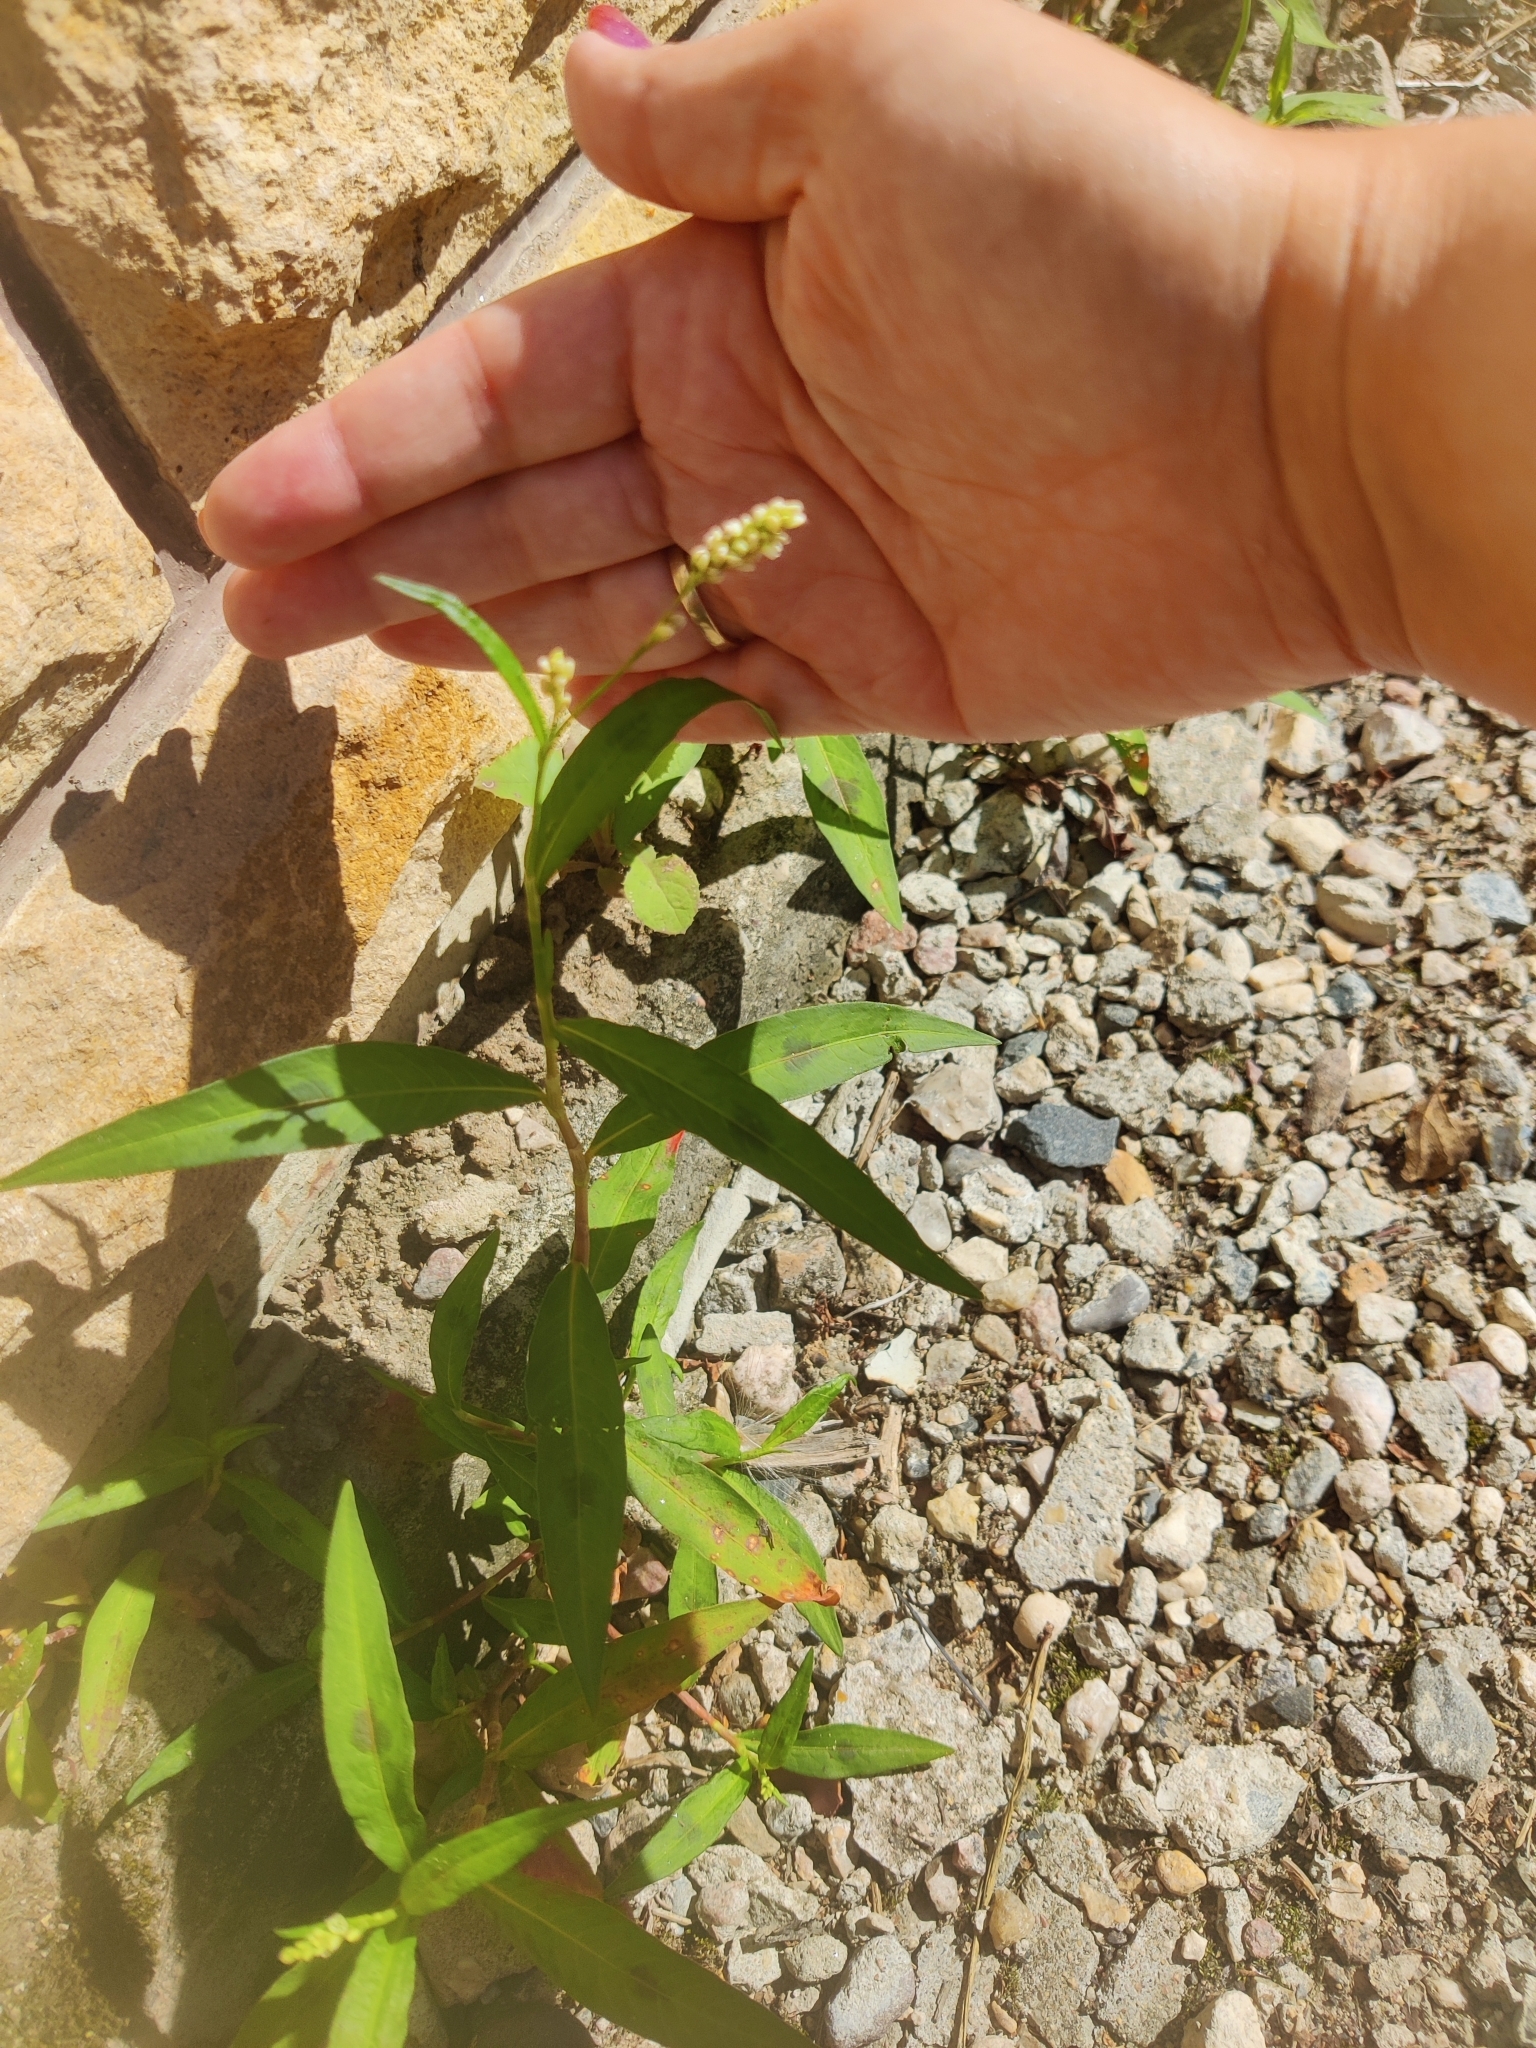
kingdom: Plantae
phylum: Tracheophyta
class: Magnoliopsida
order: Caryophyllales
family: Polygonaceae
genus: Persicaria
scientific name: Persicaria lapathifolia
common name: Curlytop knotweed
